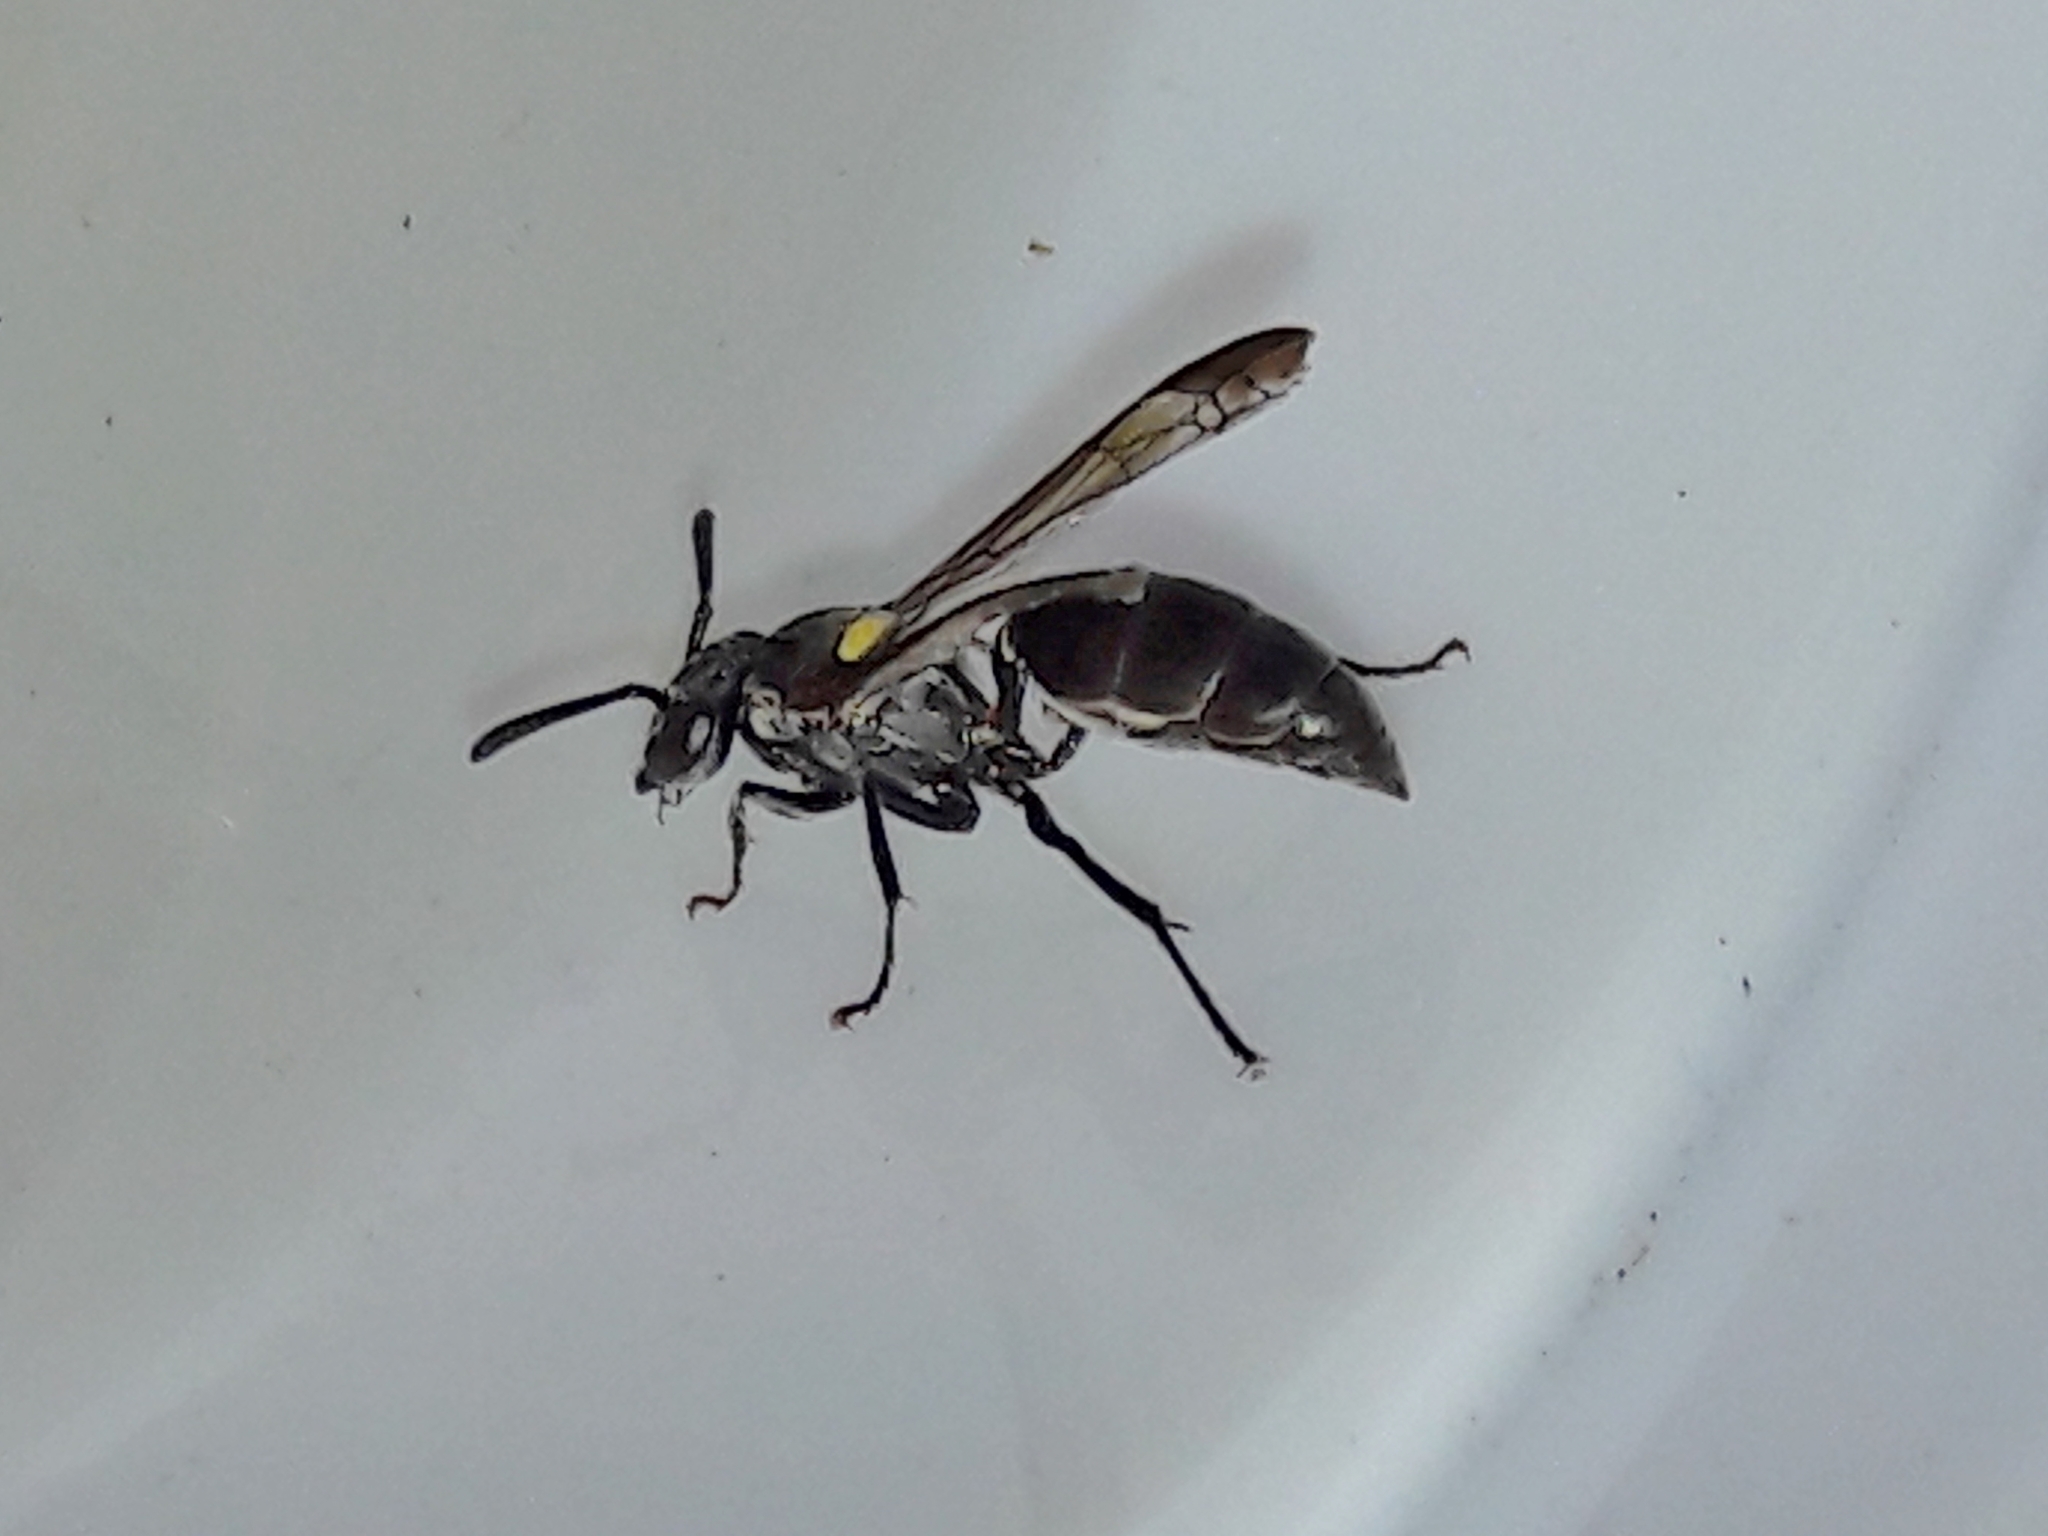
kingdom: Animalia
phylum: Arthropoda
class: Insecta
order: Hymenoptera
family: Eumenidae
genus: Polybia
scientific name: Polybia scutellaris
